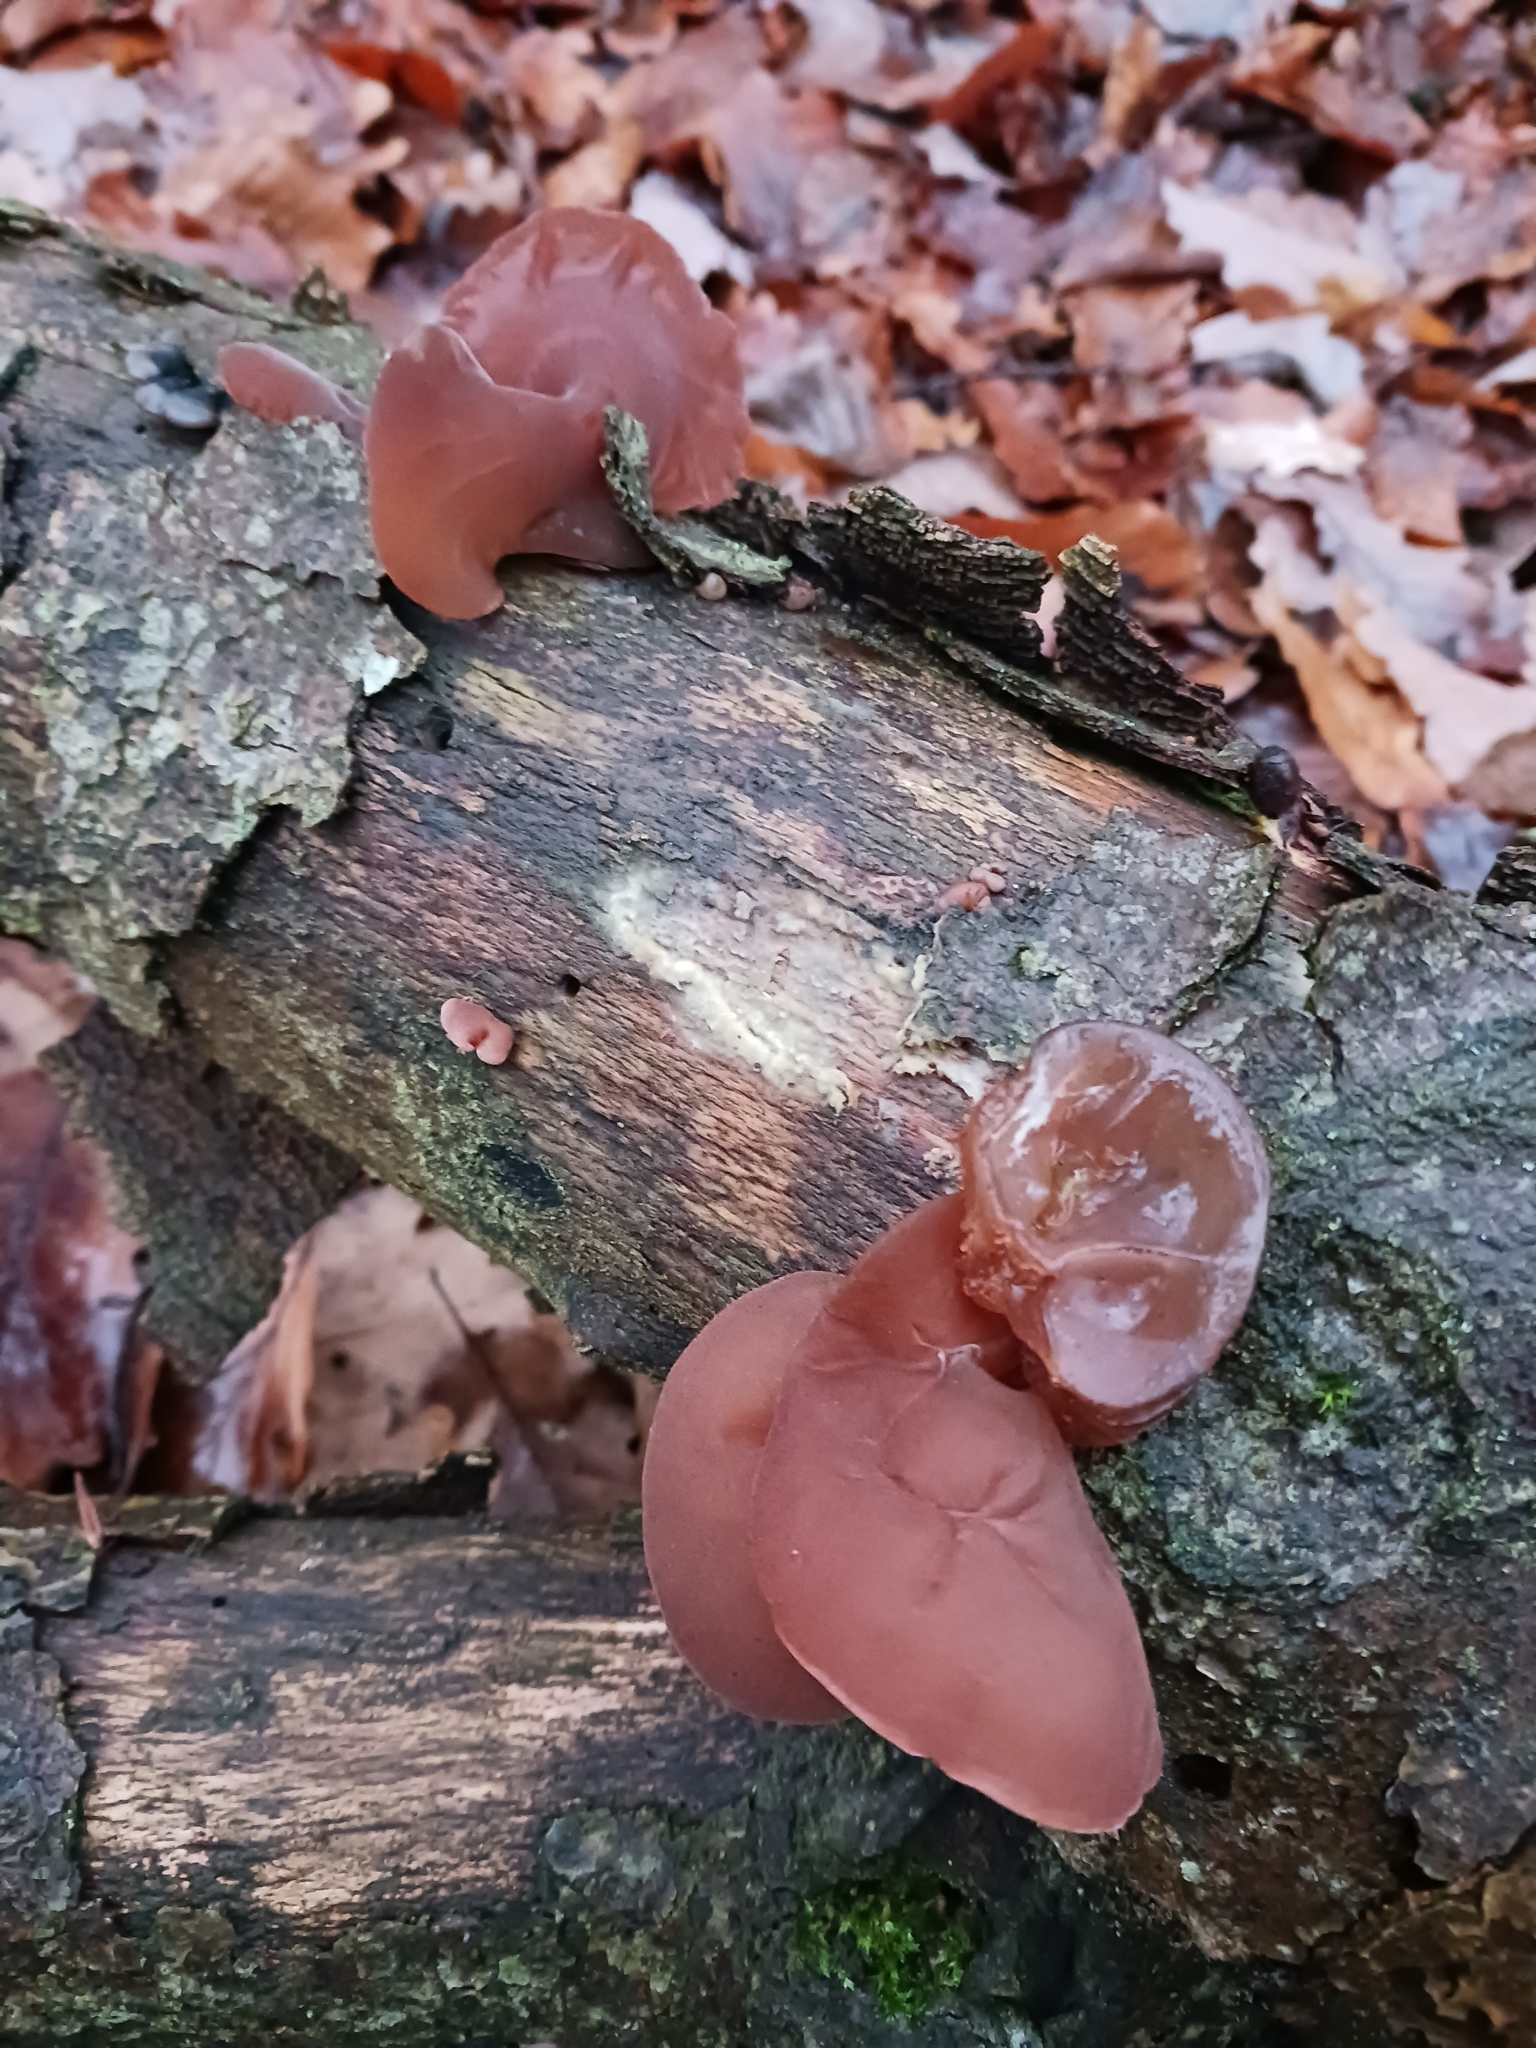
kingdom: Fungi
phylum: Basidiomycota
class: Agaricomycetes
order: Auriculariales
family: Auriculariaceae
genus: Auricularia
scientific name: Auricularia auricula-judae
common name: Jelly ear
